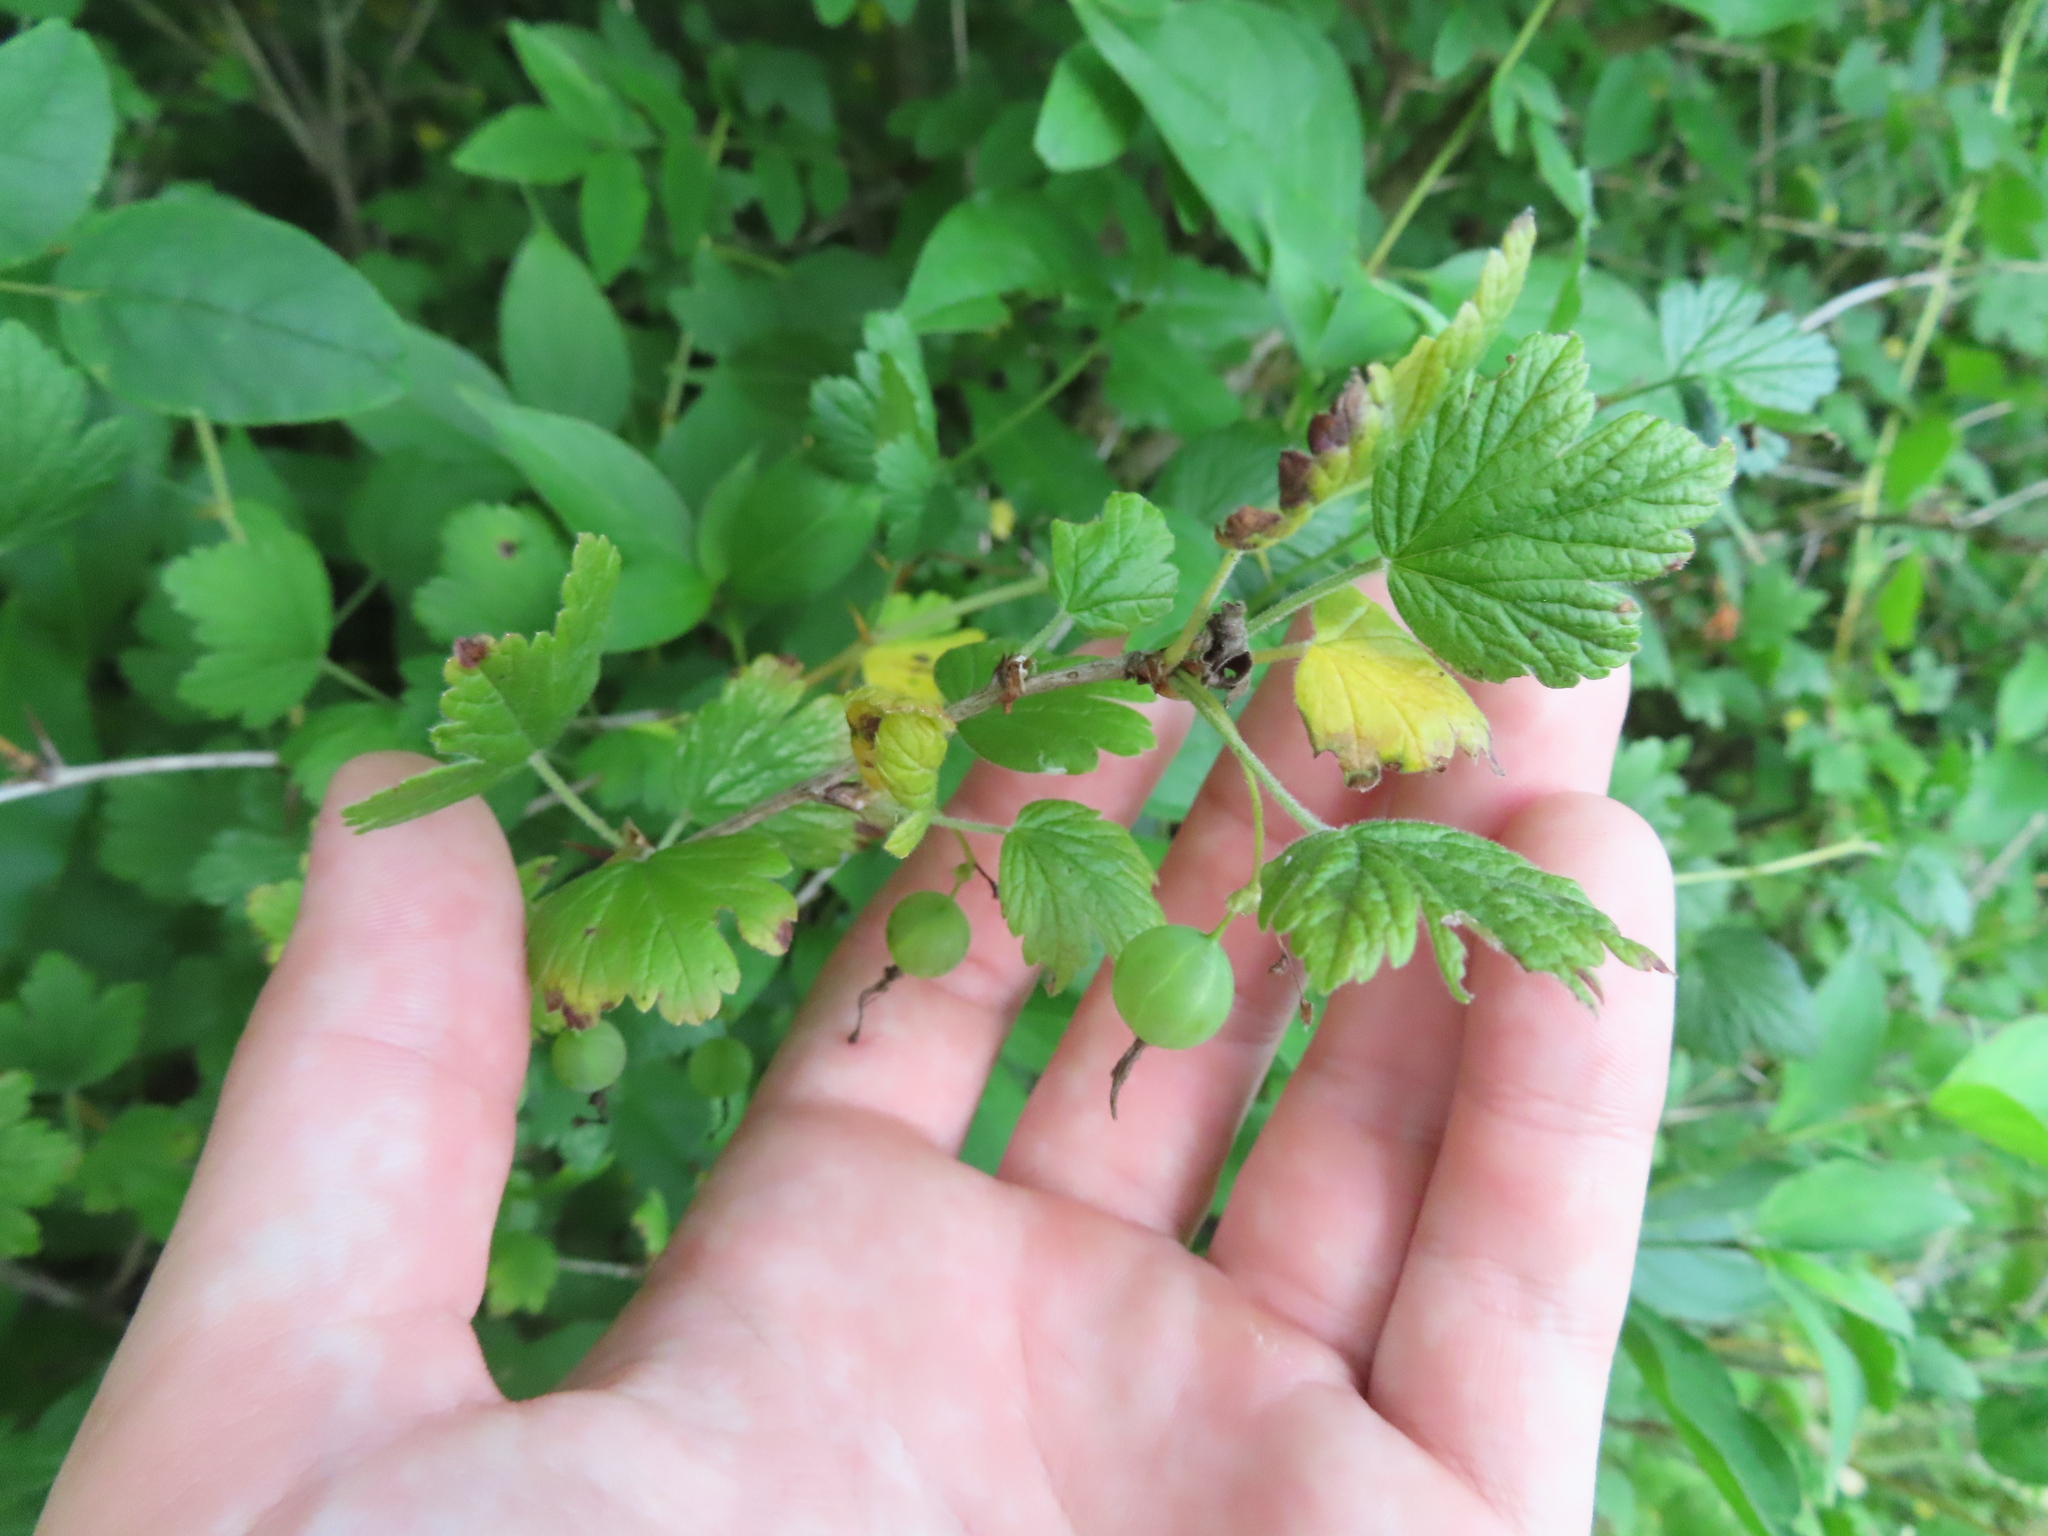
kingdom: Plantae
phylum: Tracheophyta
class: Magnoliopsida
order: Saxifragales
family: Grossulariaceae
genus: Ribes
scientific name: Ribes missouriense
